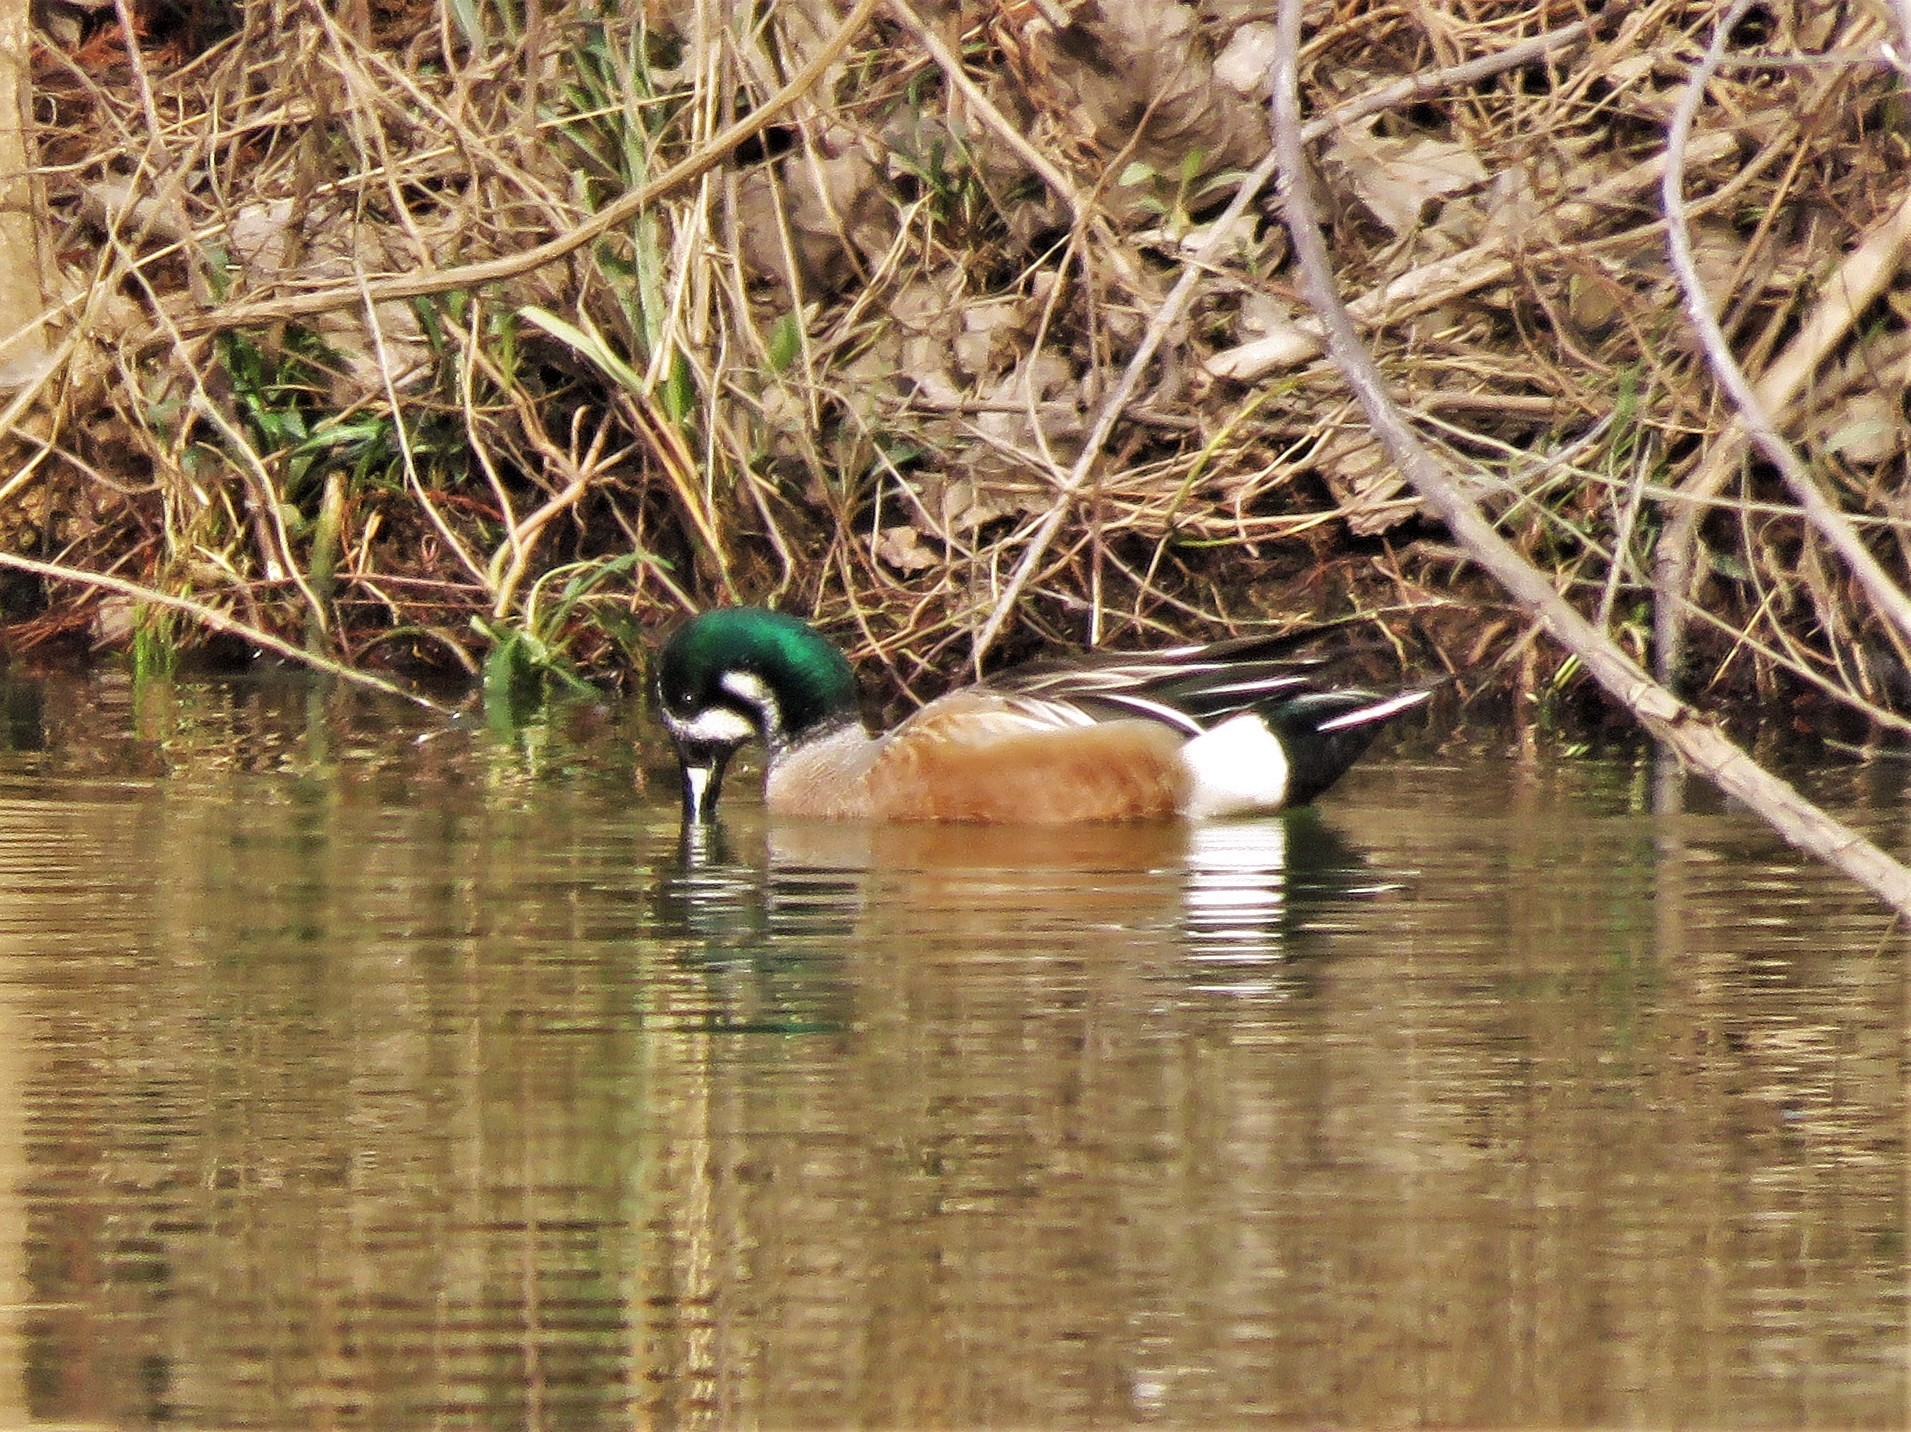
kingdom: Animalia
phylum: Chordata
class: Aves
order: Anseriformes
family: Anatidae
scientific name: Anatidae
